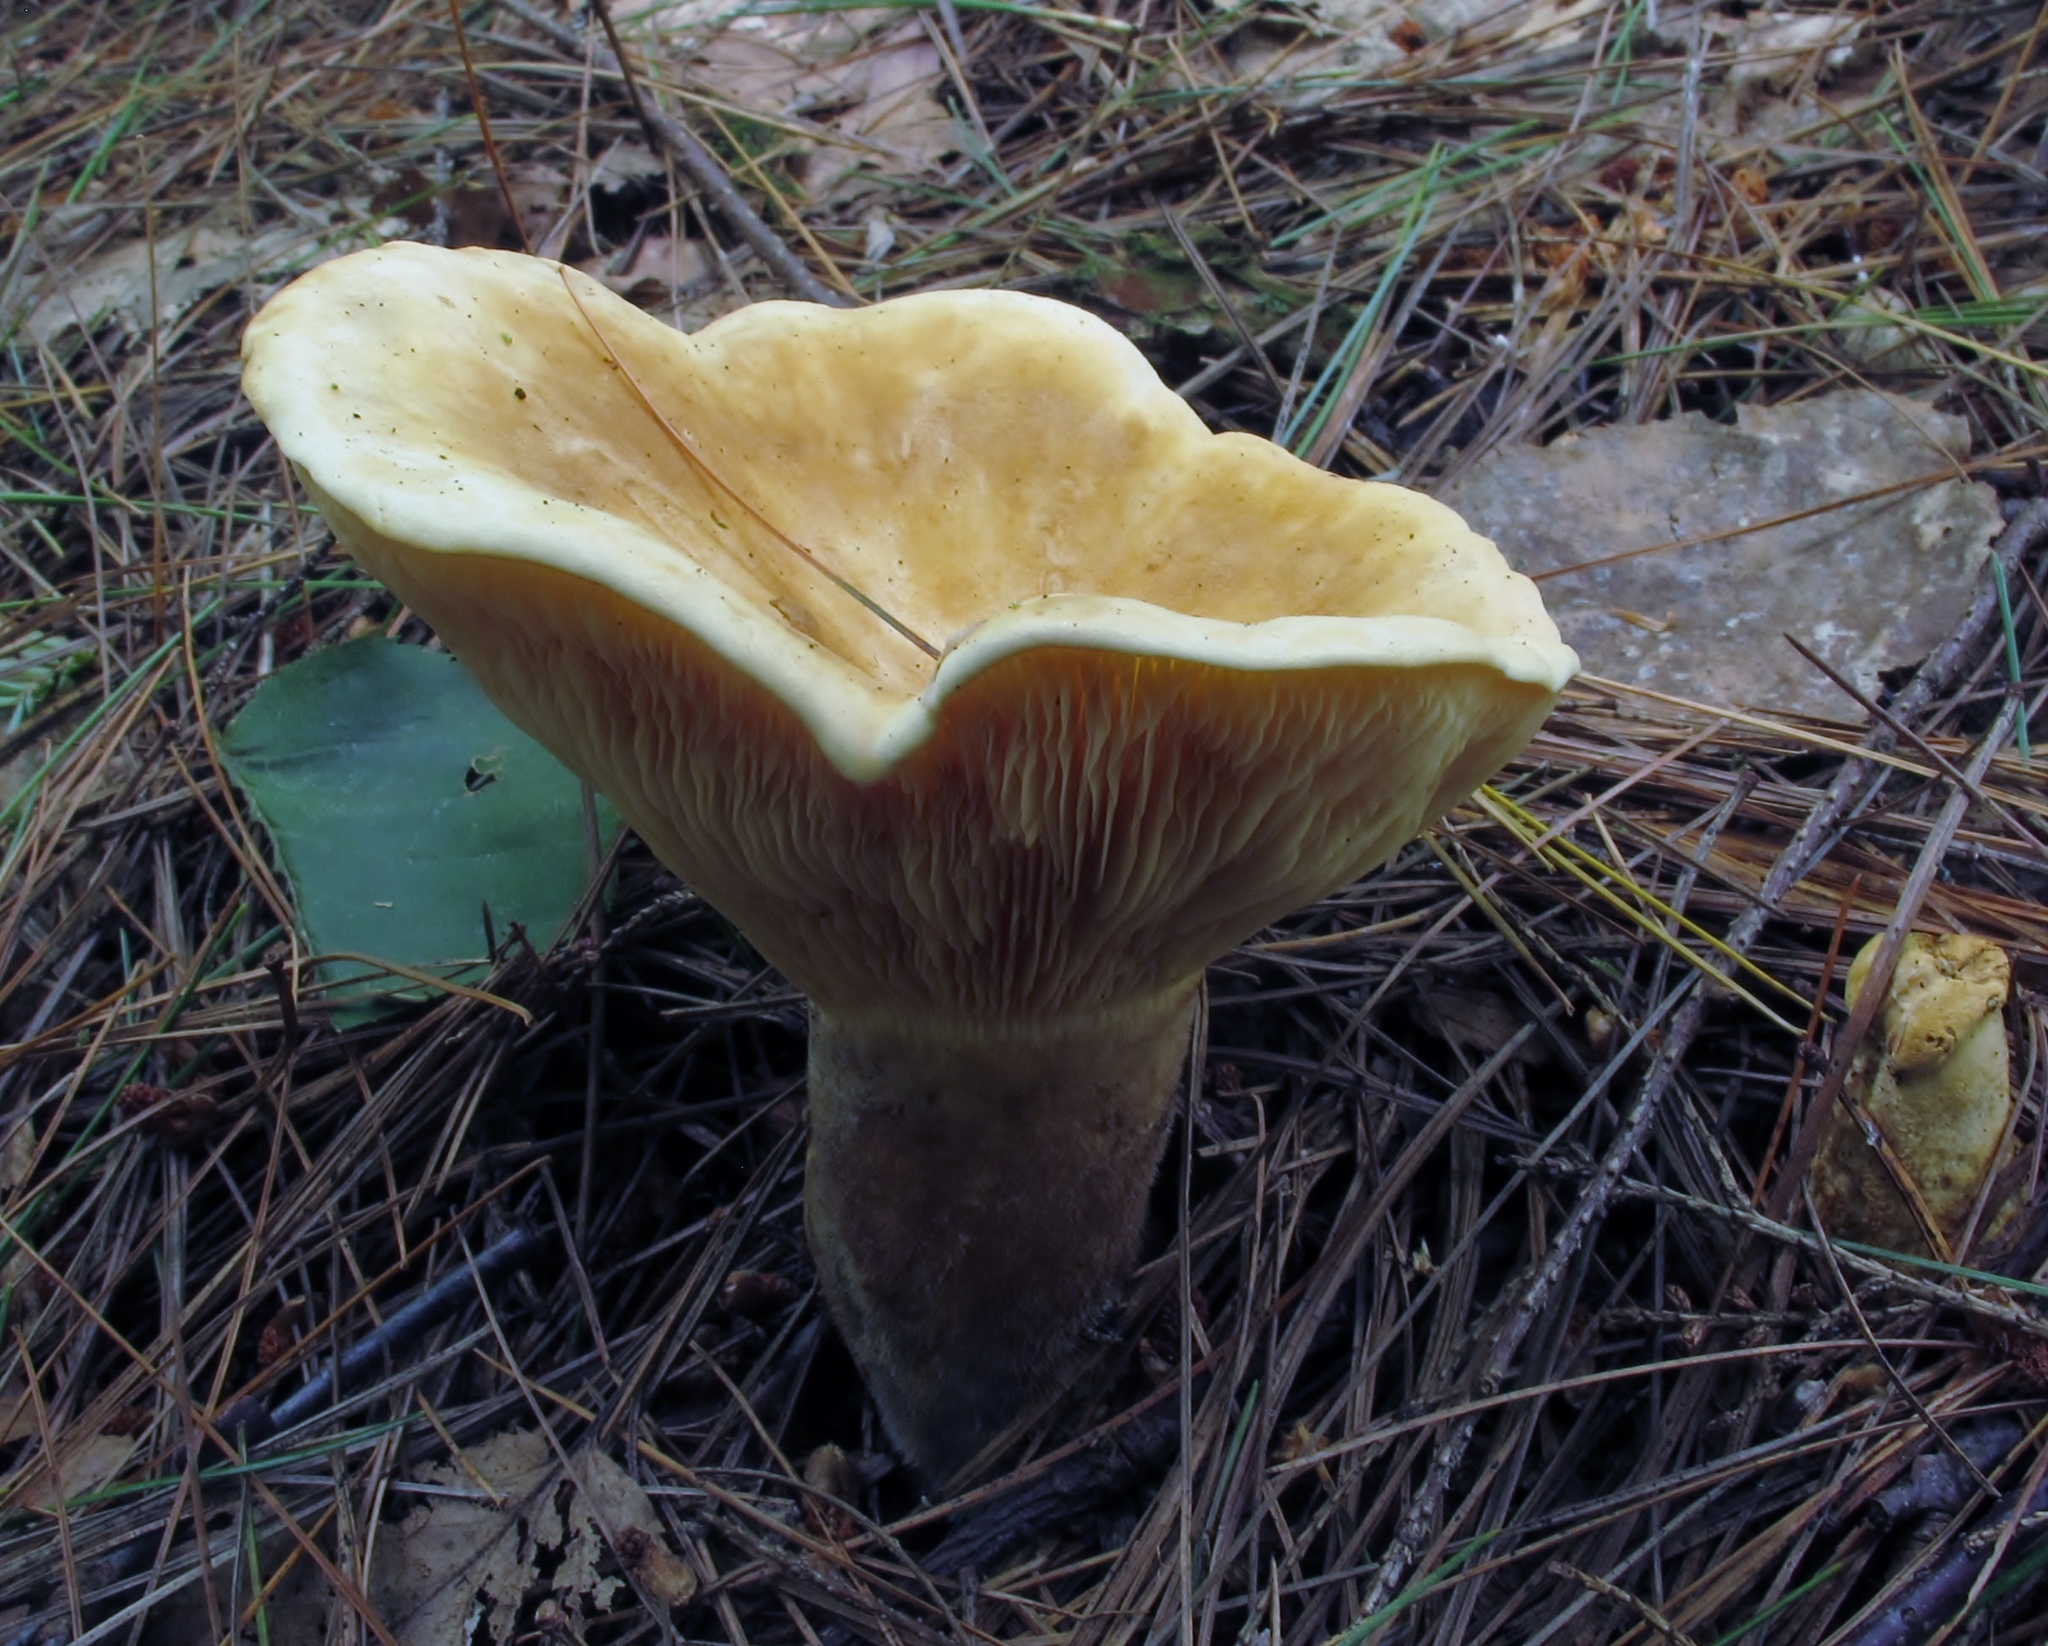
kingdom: Fungi
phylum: Basidiomycota
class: Agaricomycetes
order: Boletales
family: Tapinellaceae
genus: Tapinella
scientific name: Tapinella atrotomentosa
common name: Velvet rollrim
